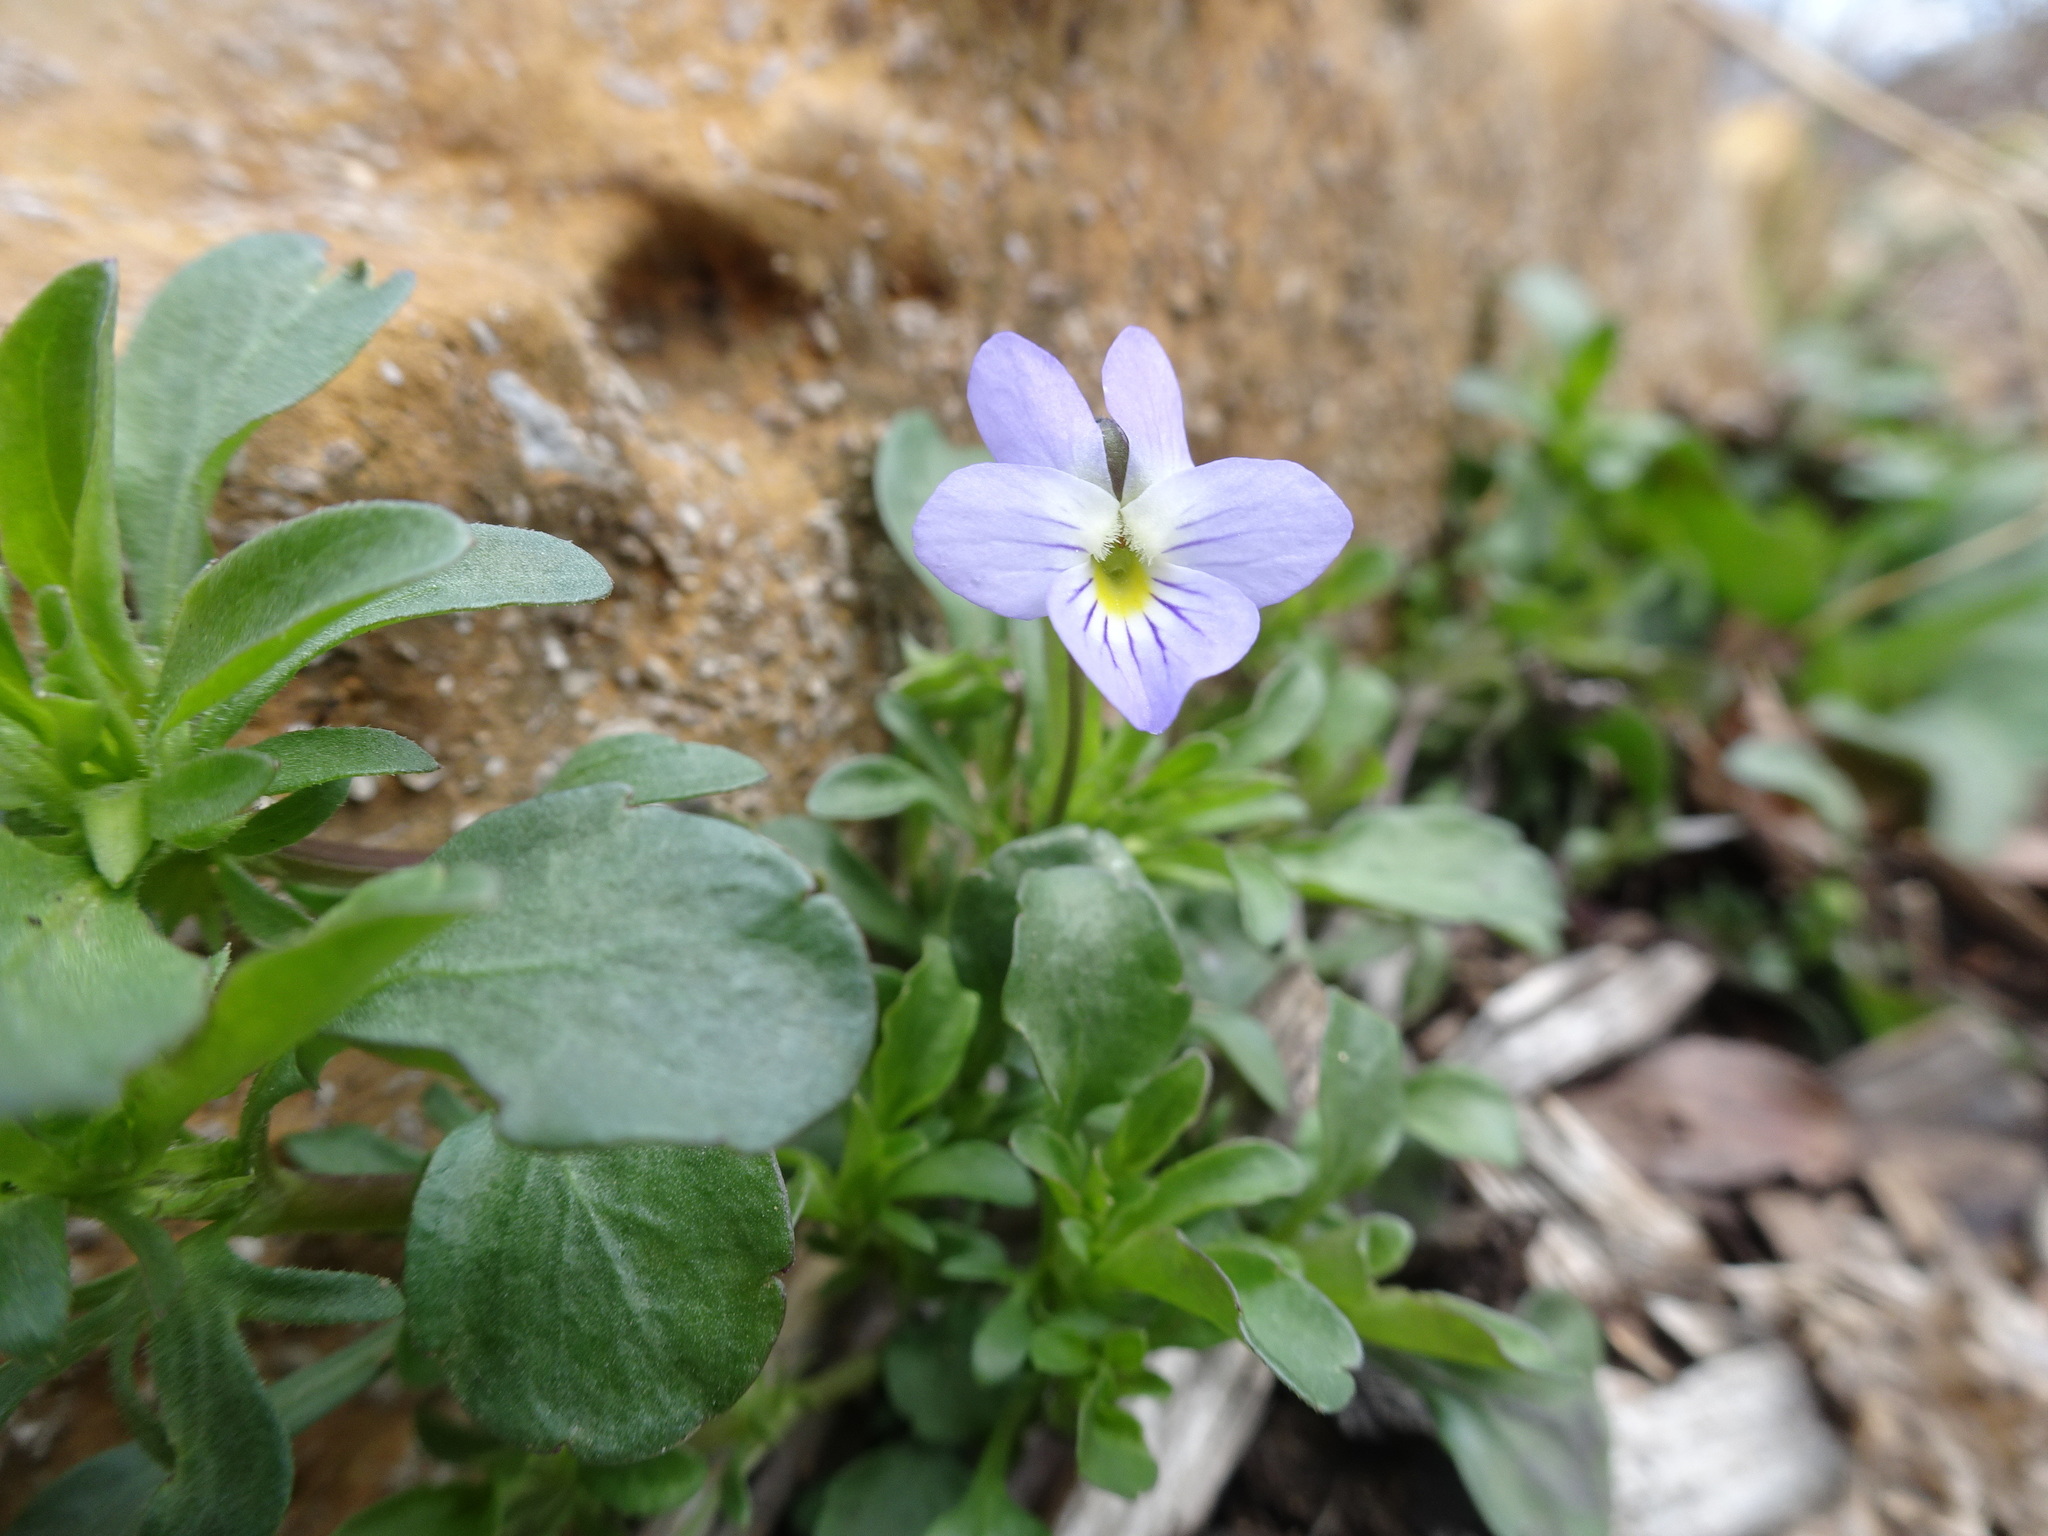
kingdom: Plantae
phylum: Tracheophyta
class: Magnoliopsida
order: Malpighiales
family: Violaceae
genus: Viola
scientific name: Viola rafinesquei
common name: American field pansy
